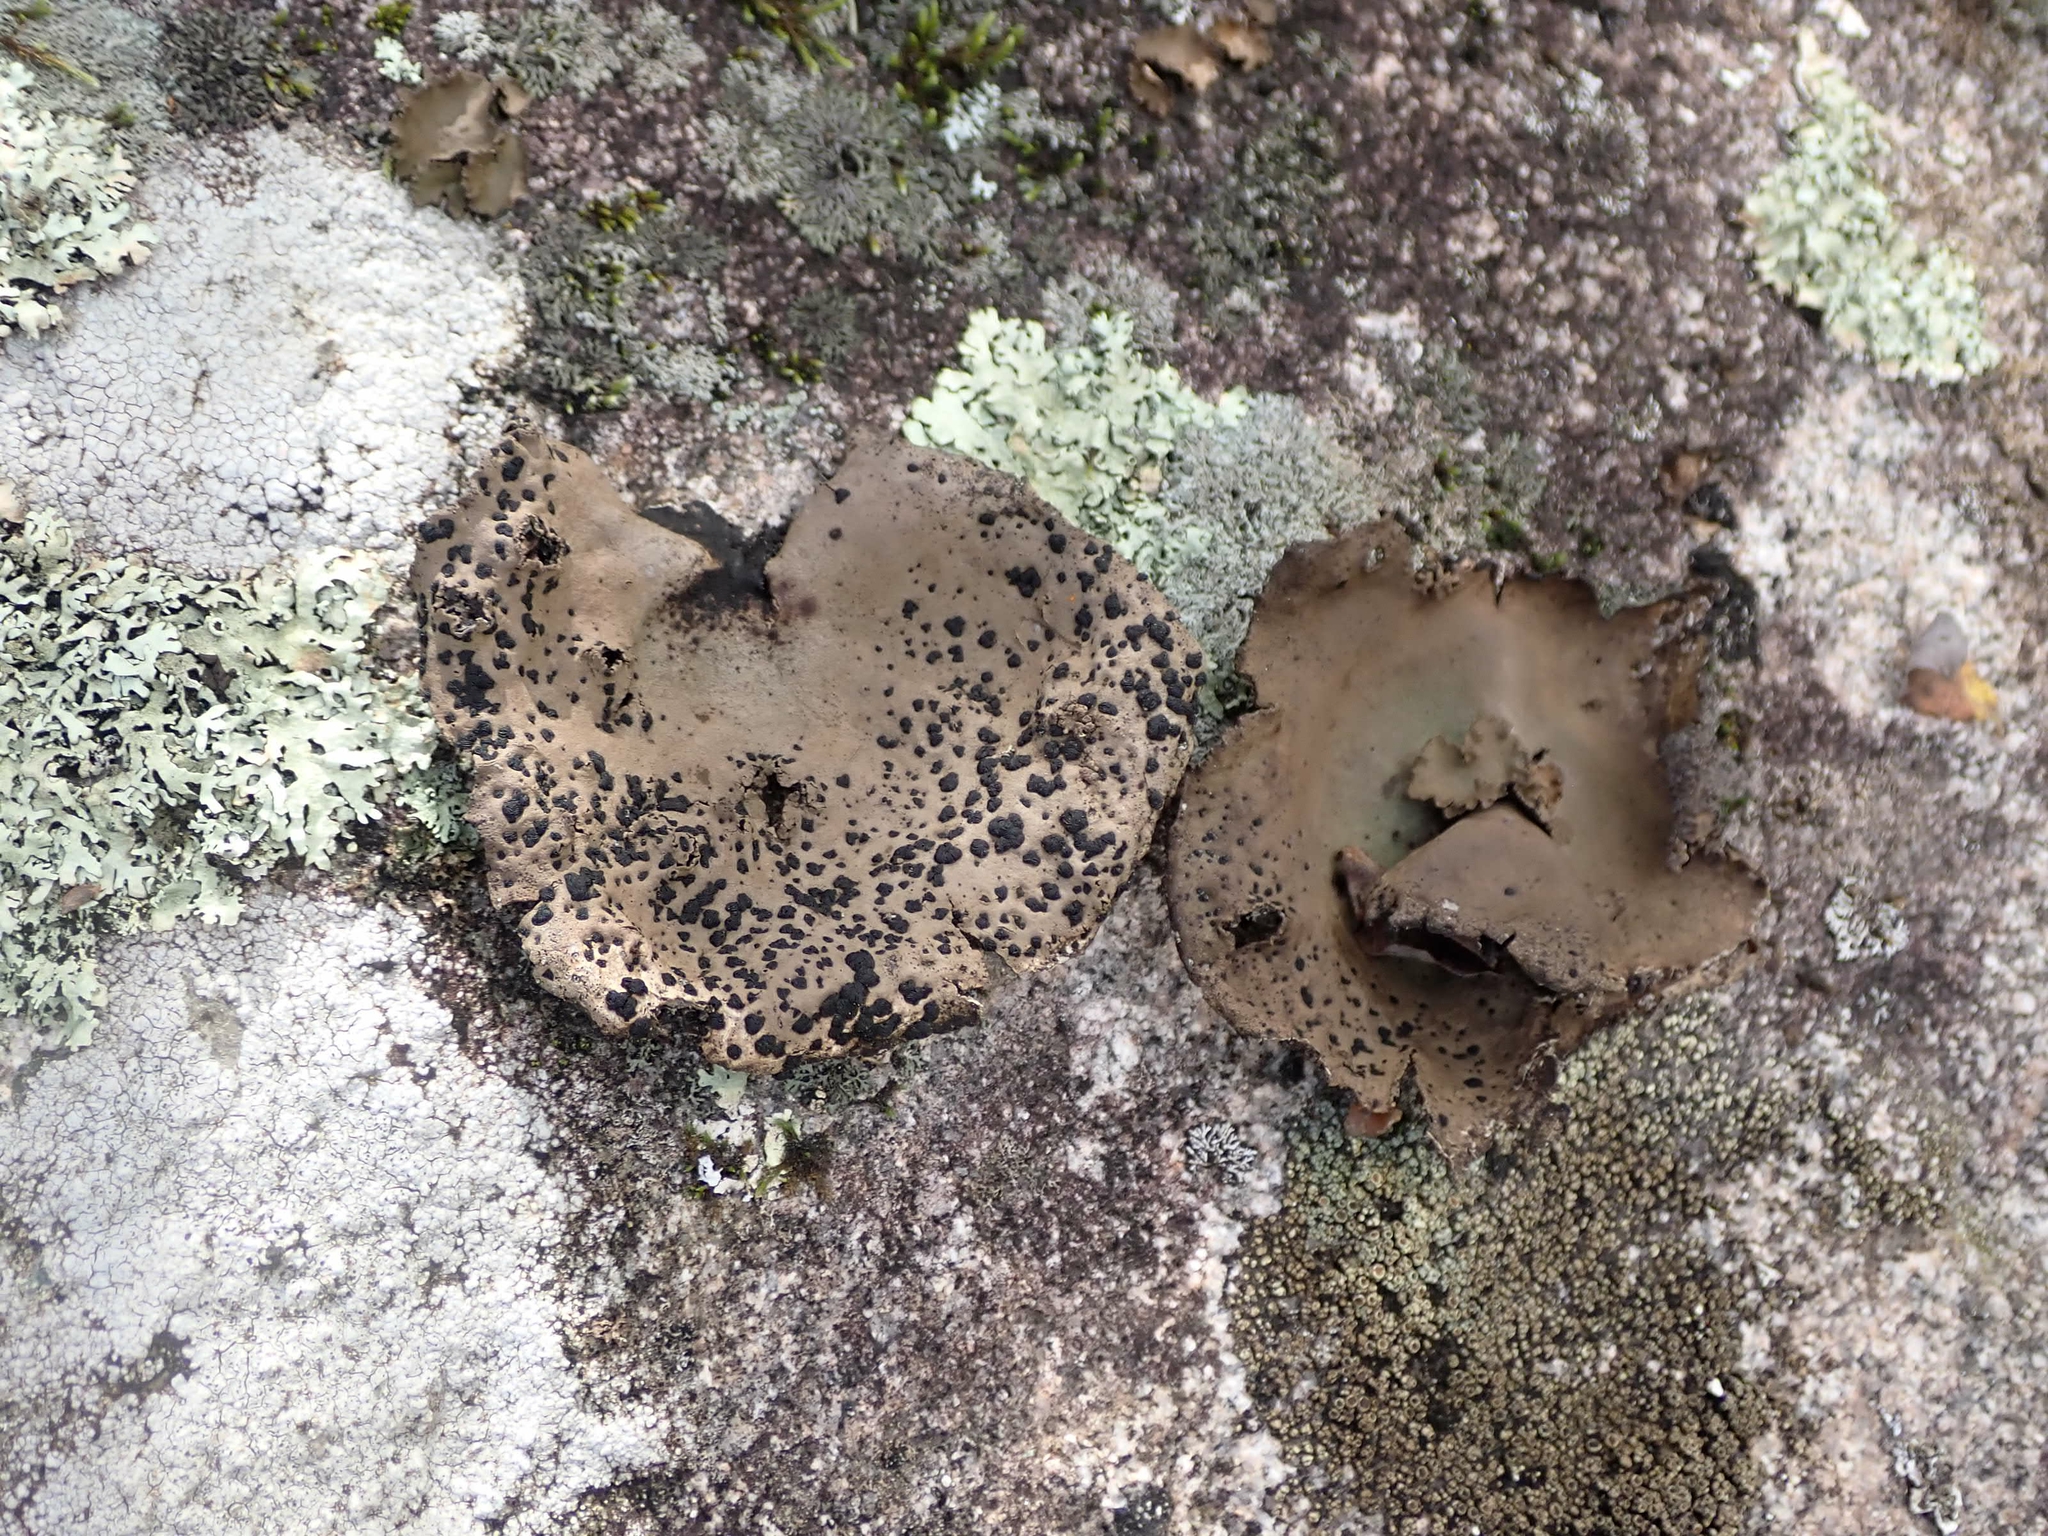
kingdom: Fungi
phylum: Ascomycota
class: Lecanoromycetes
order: Umbilicariales
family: Umbilicariaceae
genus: Umbilicaria
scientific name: Umbilicaria muhlenbergii
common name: Lesser rocktripe
